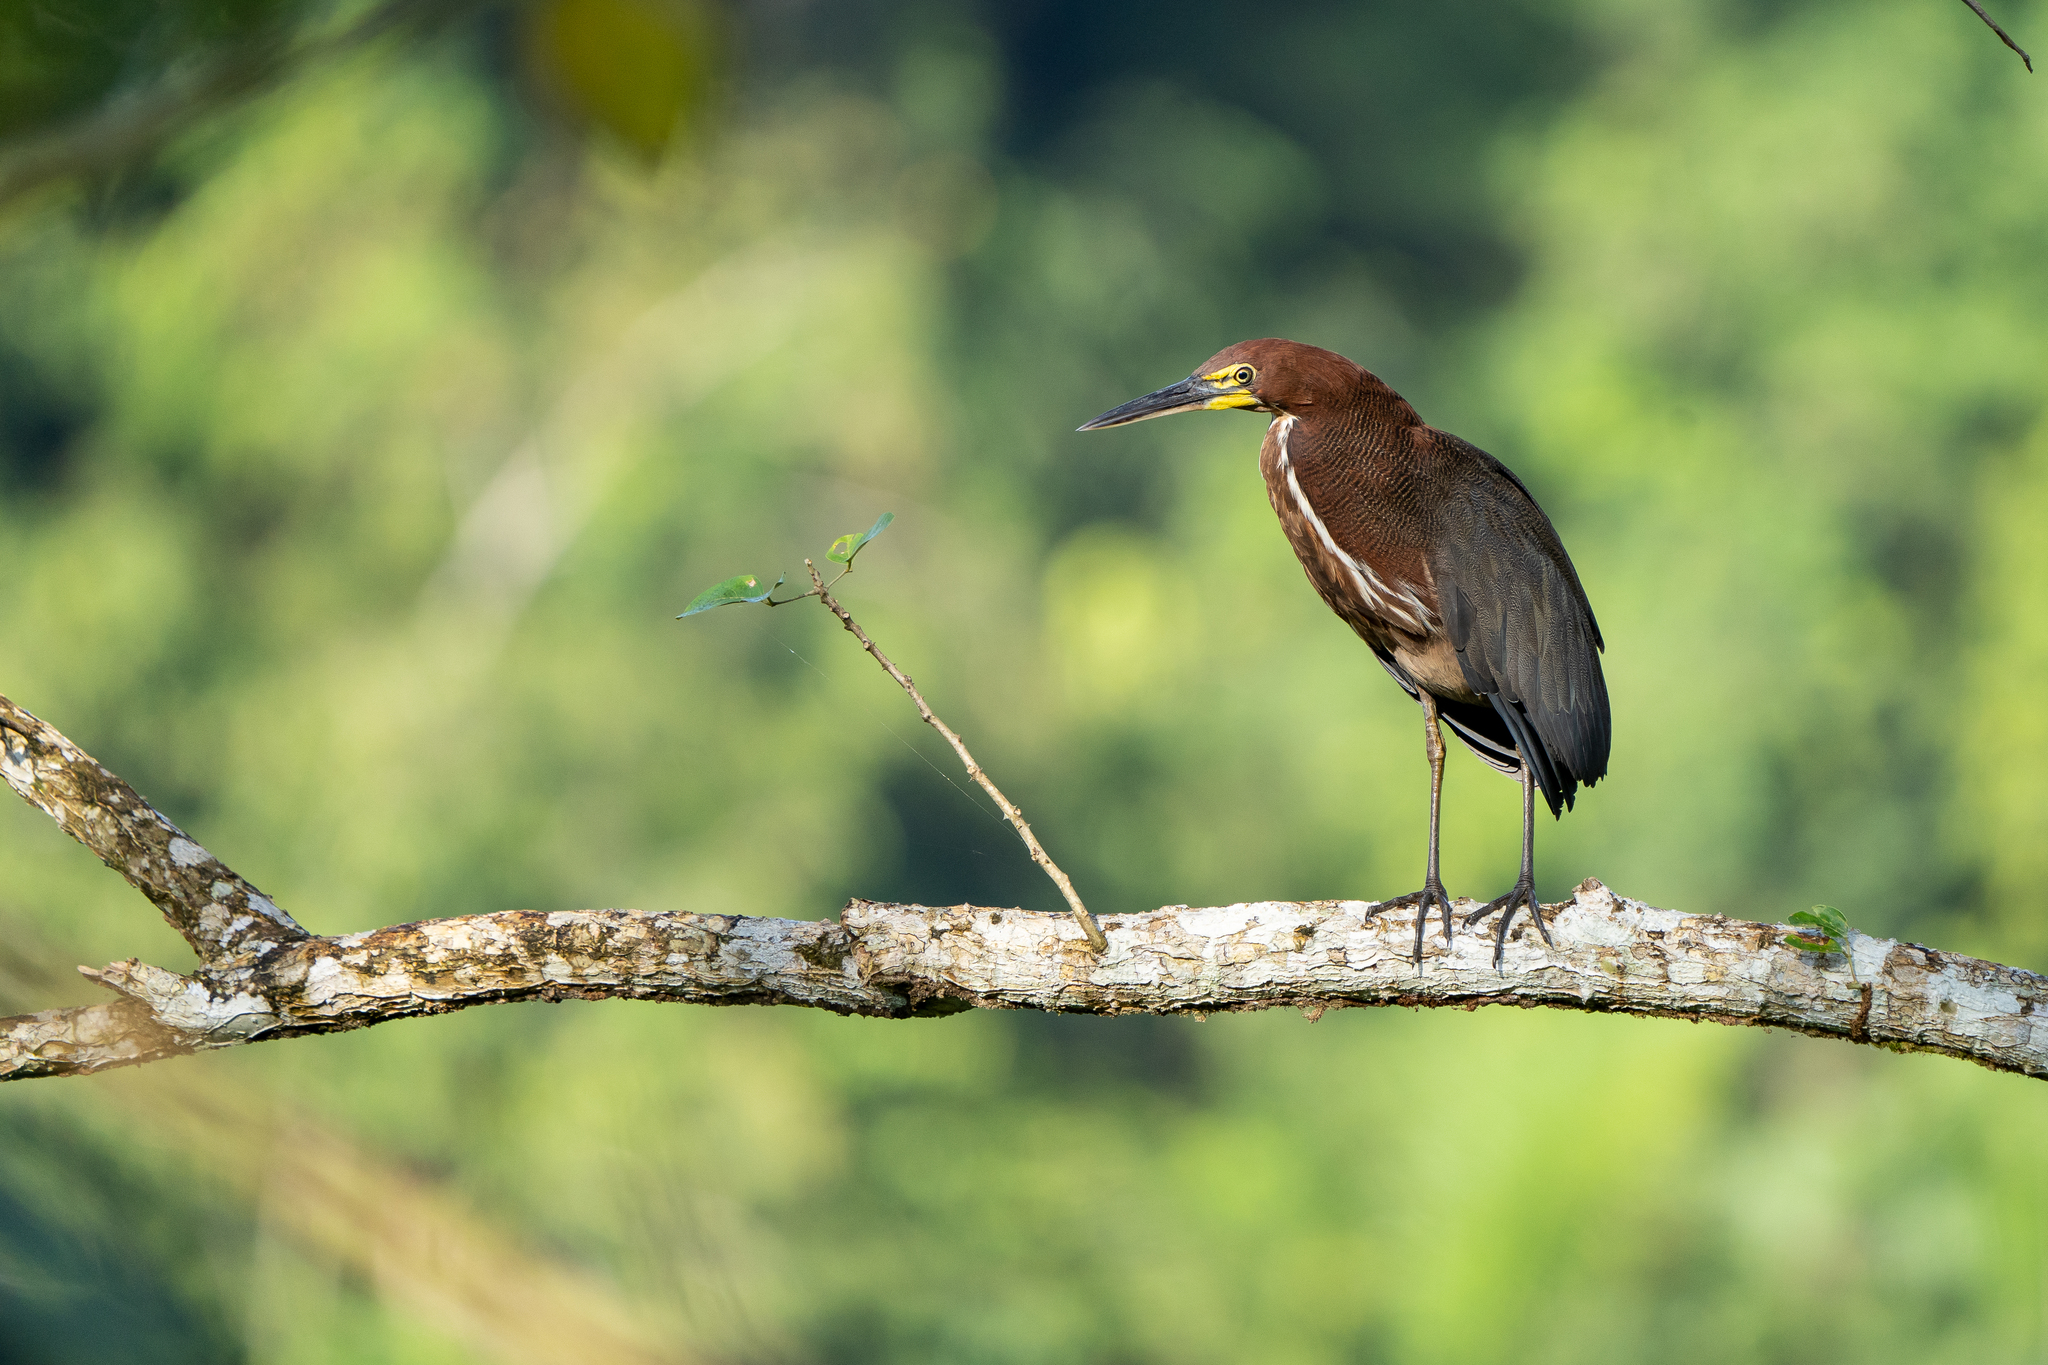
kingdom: Animalia
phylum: Chordata
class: Aves
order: Pelecaniformes
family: Ardeidae
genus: Tigrisoma
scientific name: Tigrisoma lineatum
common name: Rufescent tiger-heron
